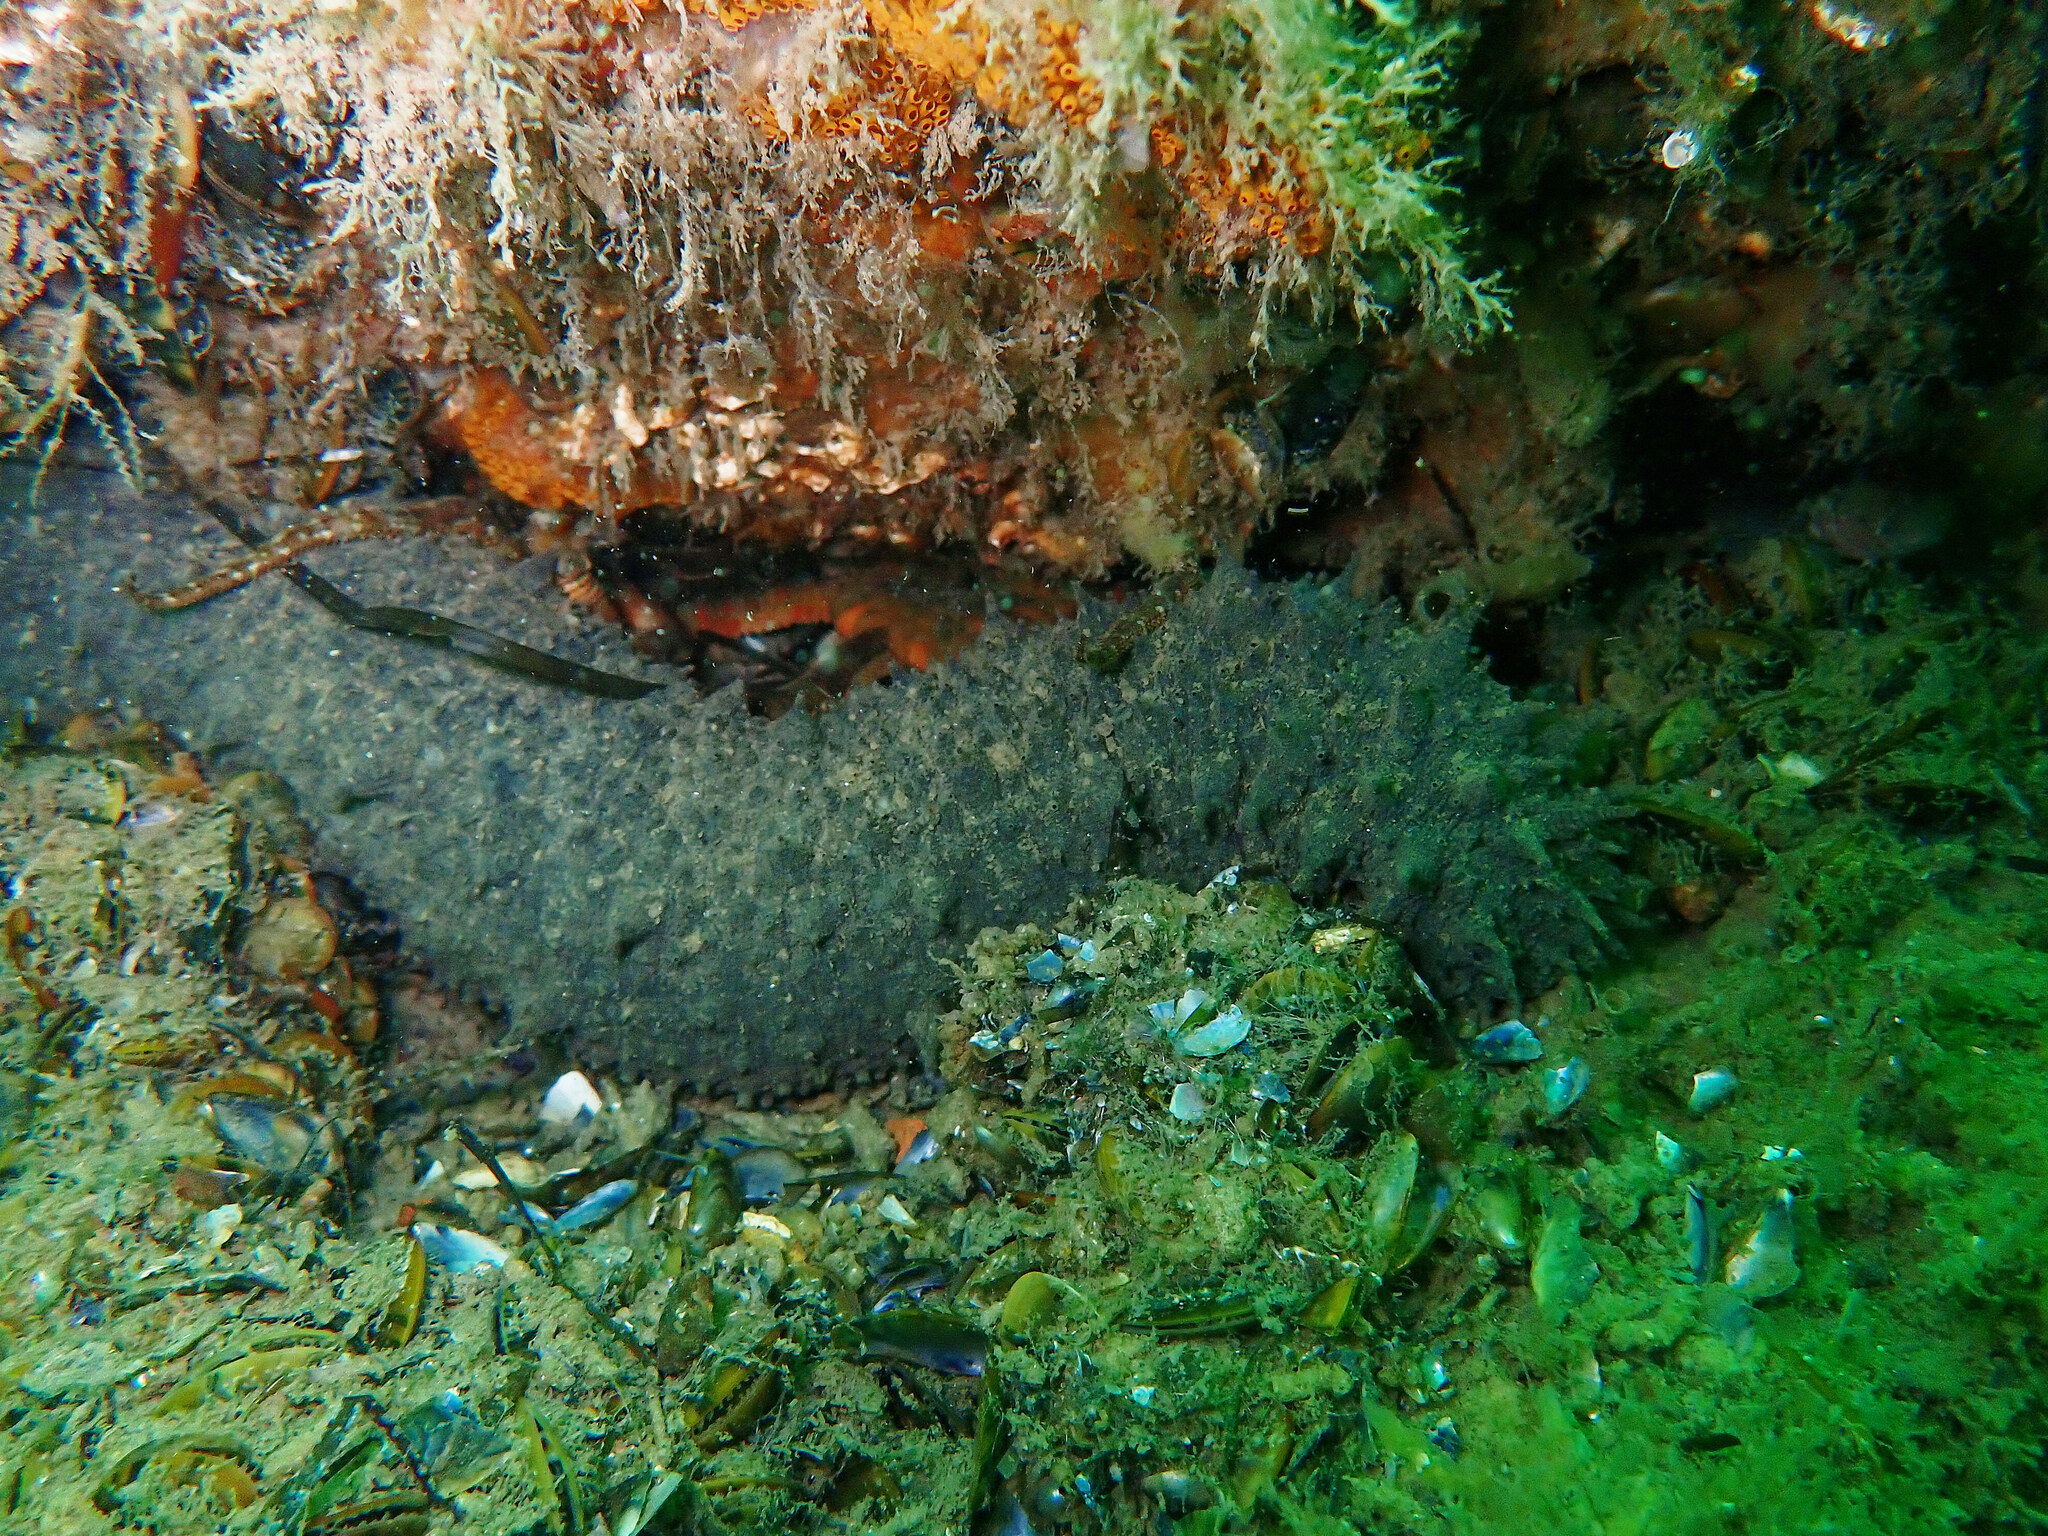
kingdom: Animalia
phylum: Echinodermata
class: Holothuroidea
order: Holothuriida
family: Holothuriidae
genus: Holothuria
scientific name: Holothuria mammata
